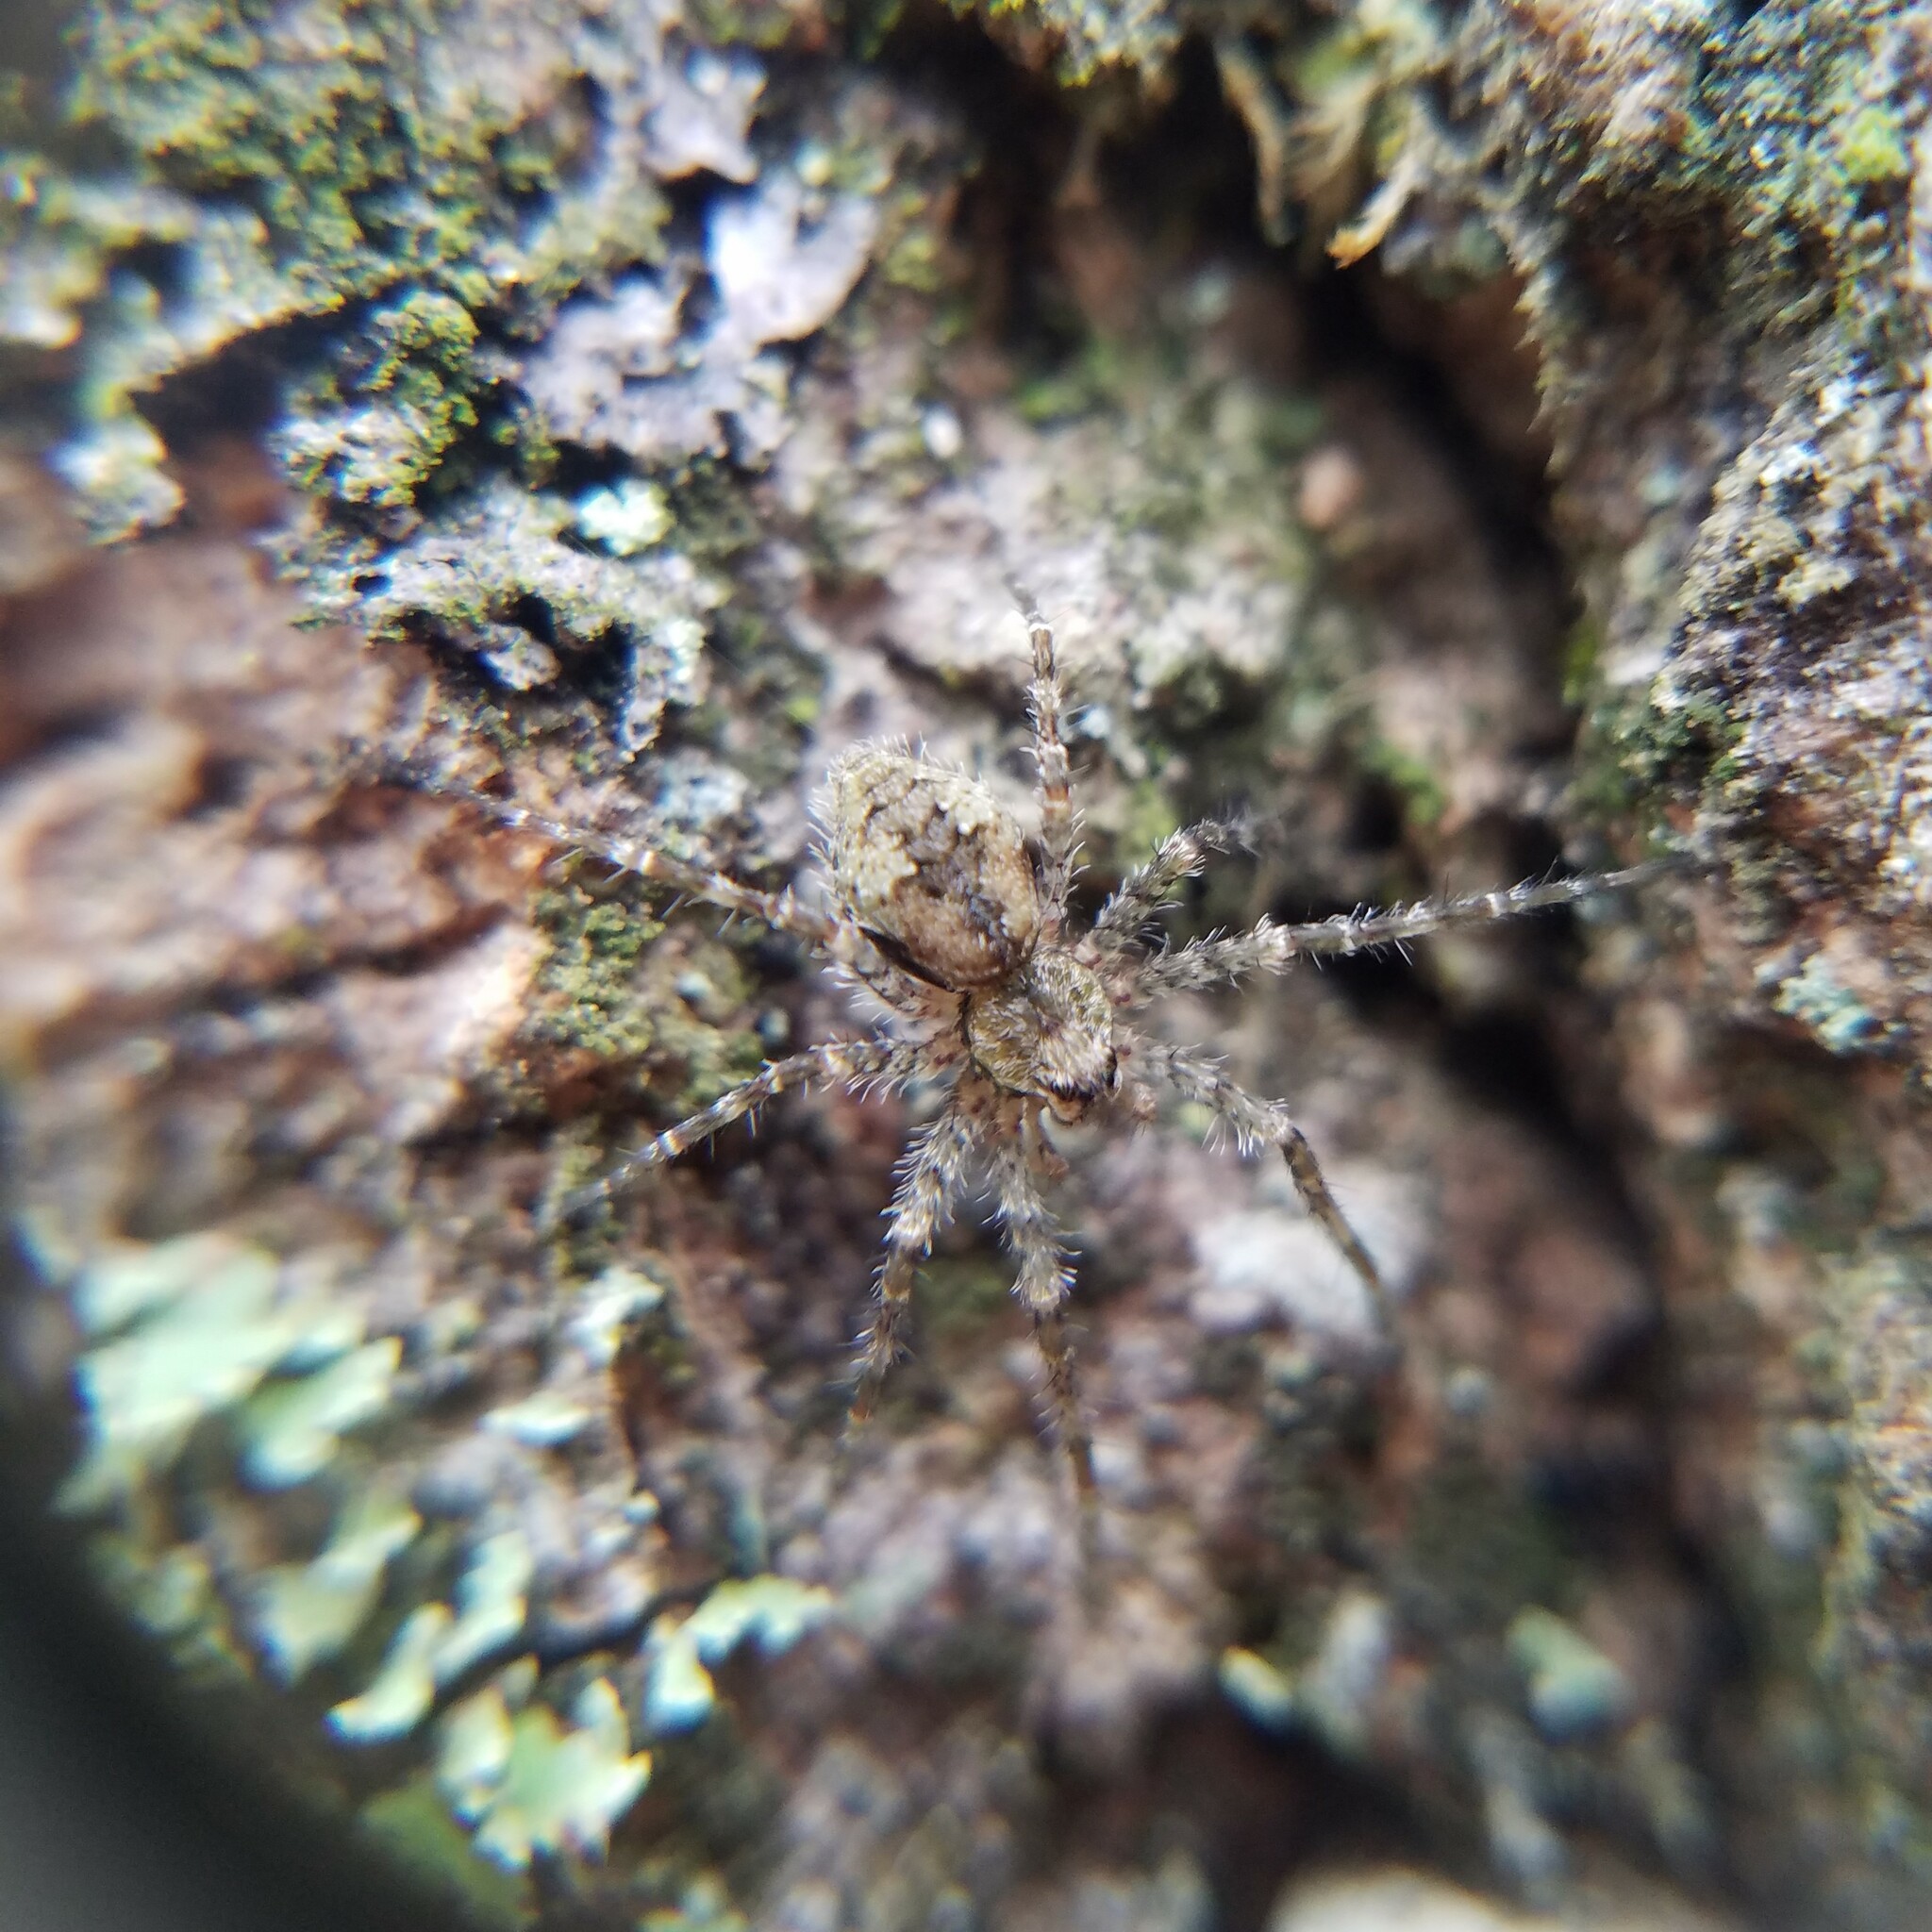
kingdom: Animalia
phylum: Arthropoda
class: Arachnida
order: Araneae
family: Pisauridae
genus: Dolomedes
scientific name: Dolomedes albineus
